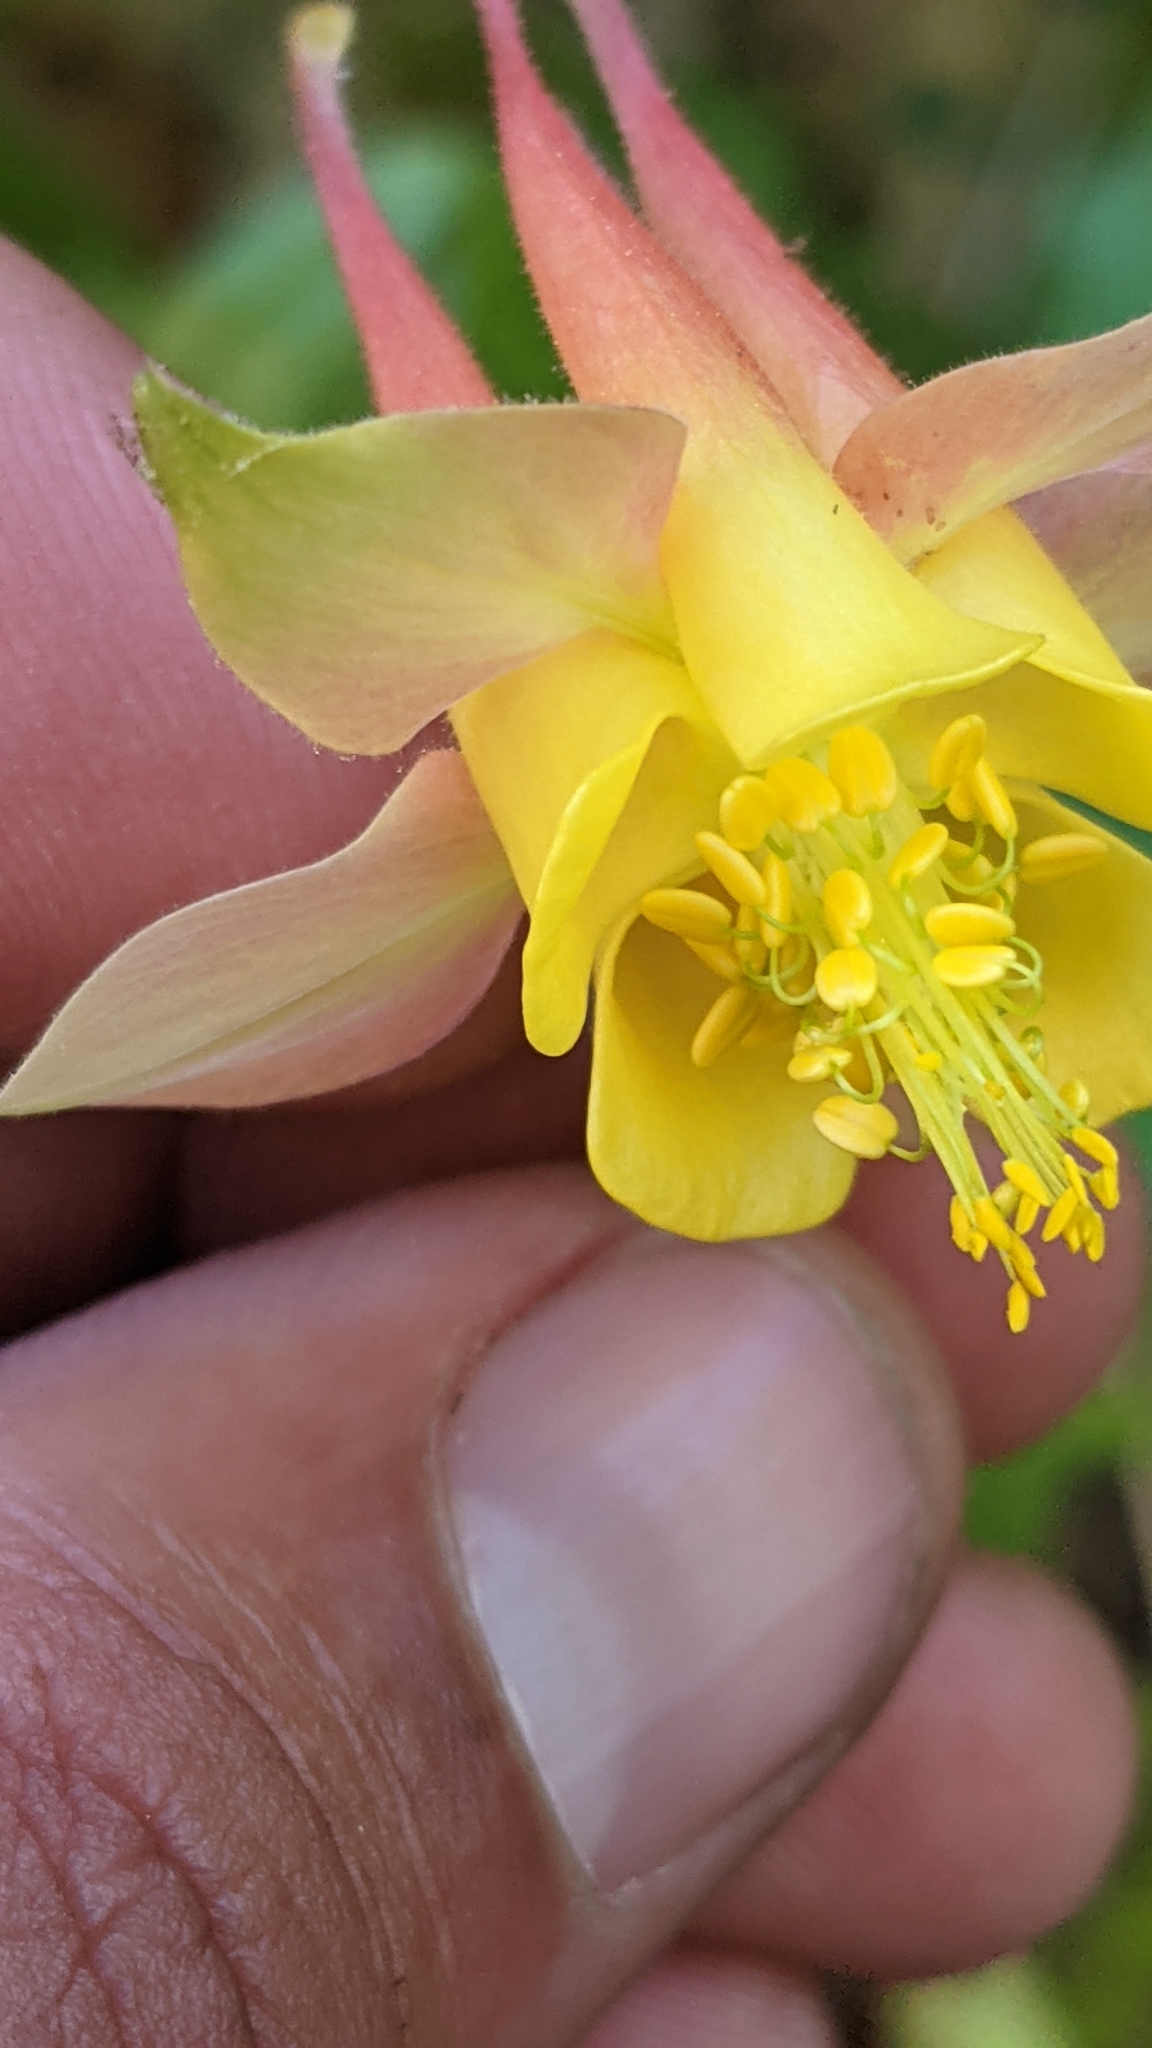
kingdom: Plantae
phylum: Tracheophyta
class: Magnoliopsida
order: Ranunculales
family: Ranunculaceae
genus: Aquilegia
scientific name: Aquilegia formosa
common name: Sitka columbine
